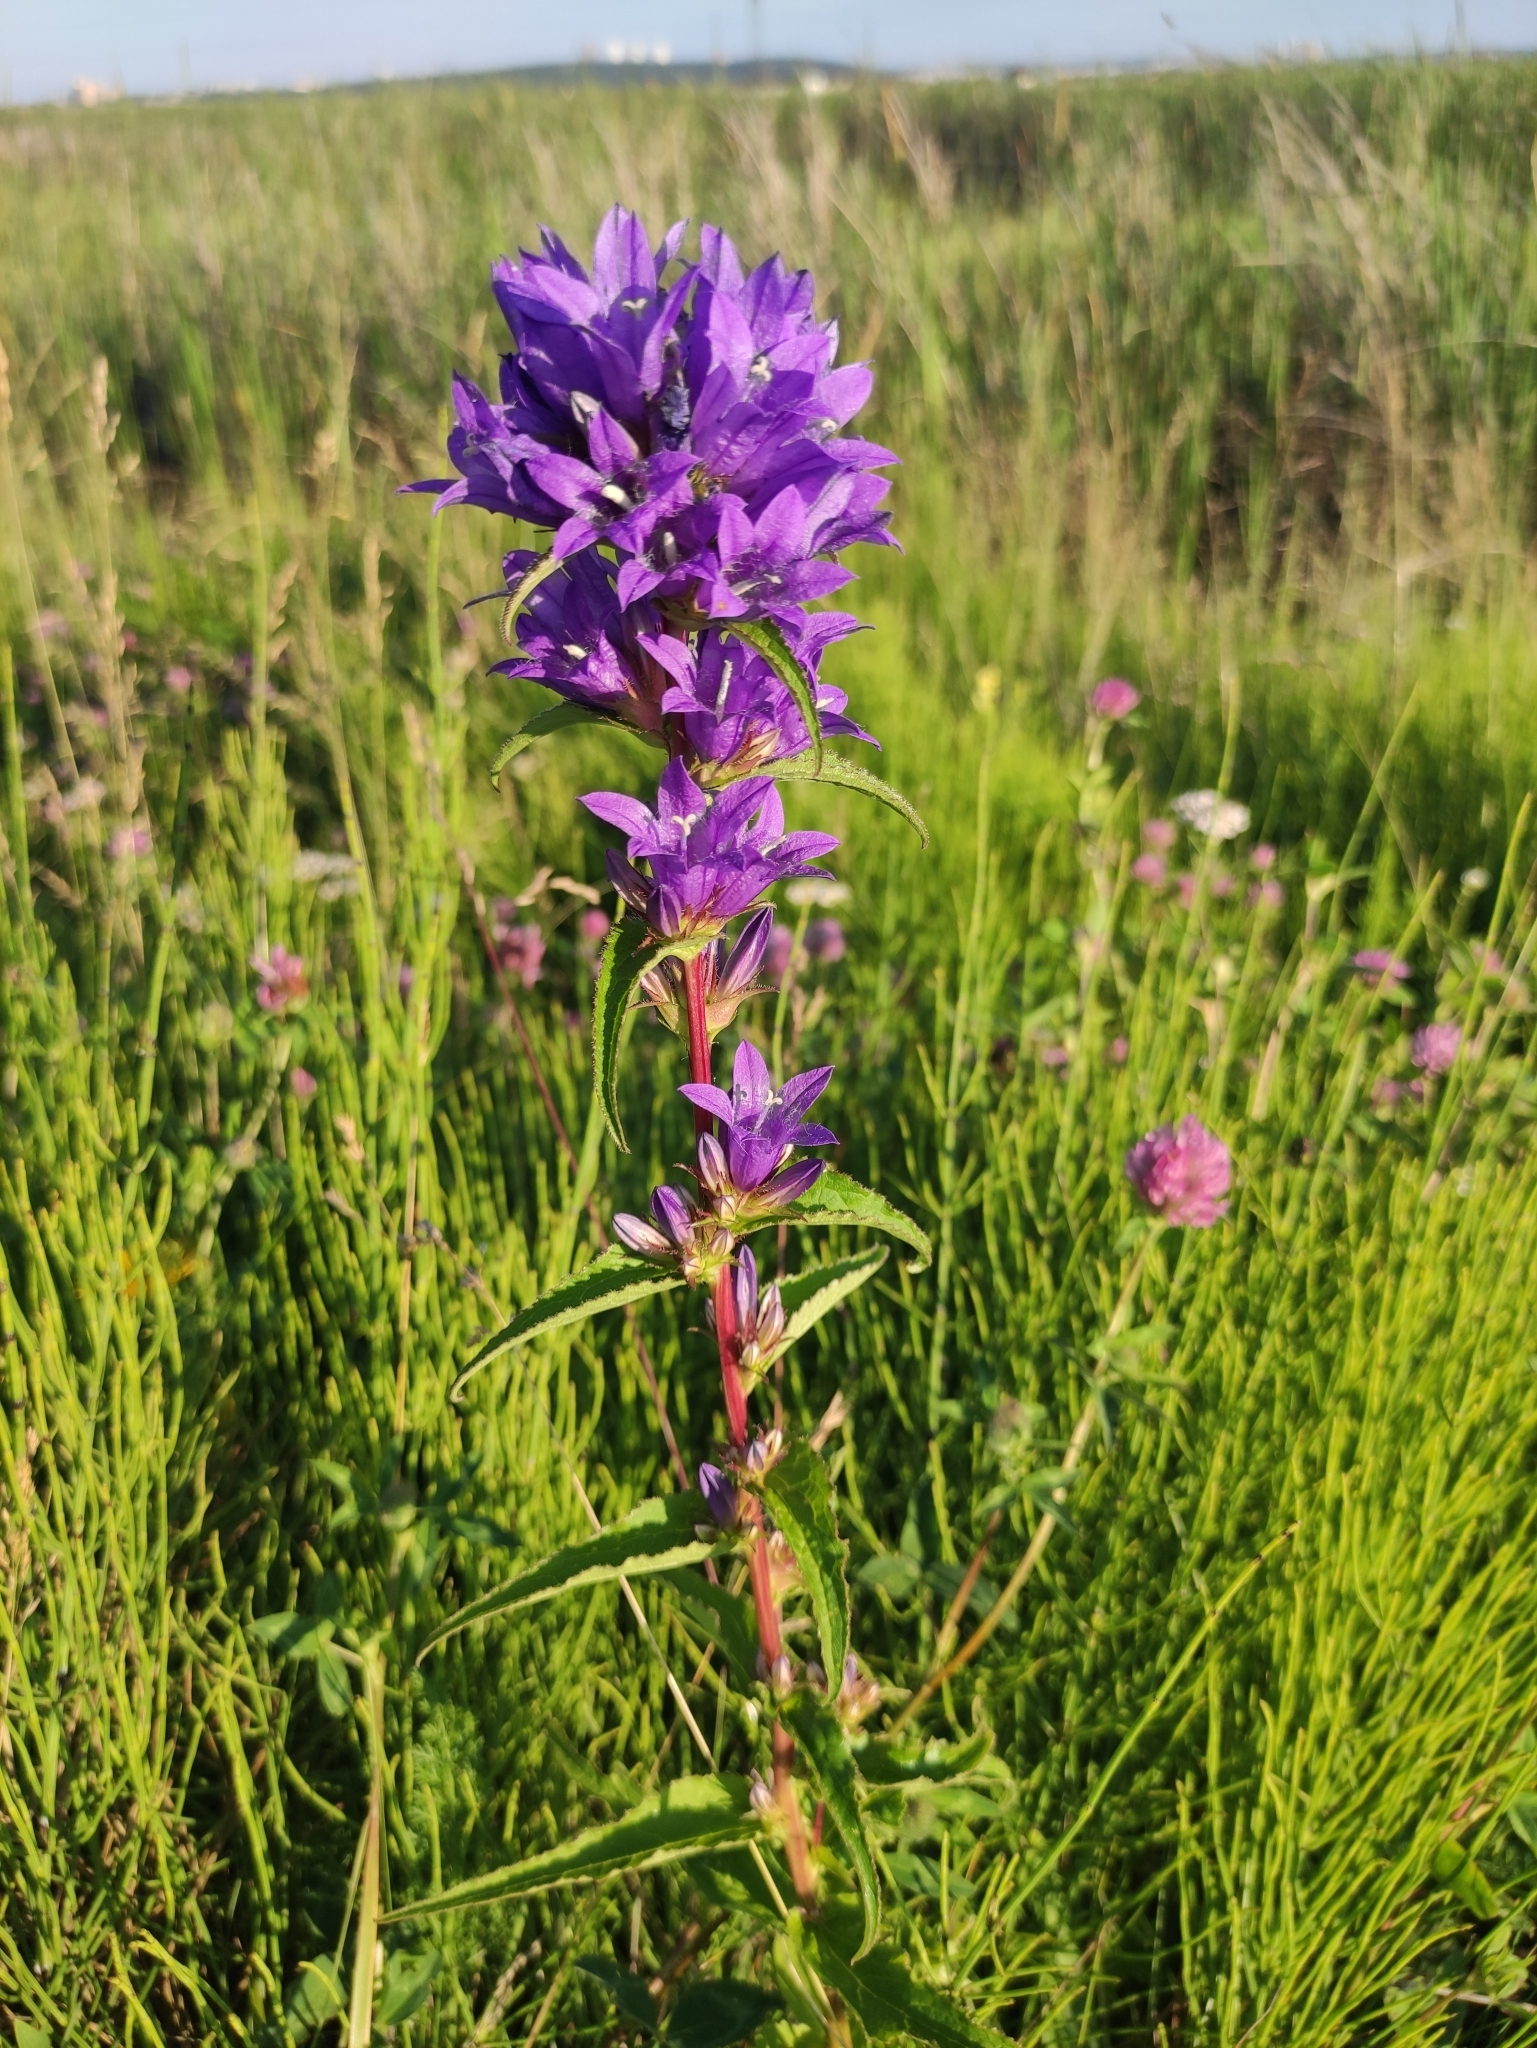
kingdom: Plantae
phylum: Tracheophyta
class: Magnoliopsida
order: Asterales
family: Campanulaceae
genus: Campanula
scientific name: Campanula glomerata
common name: Clustered bellflower
